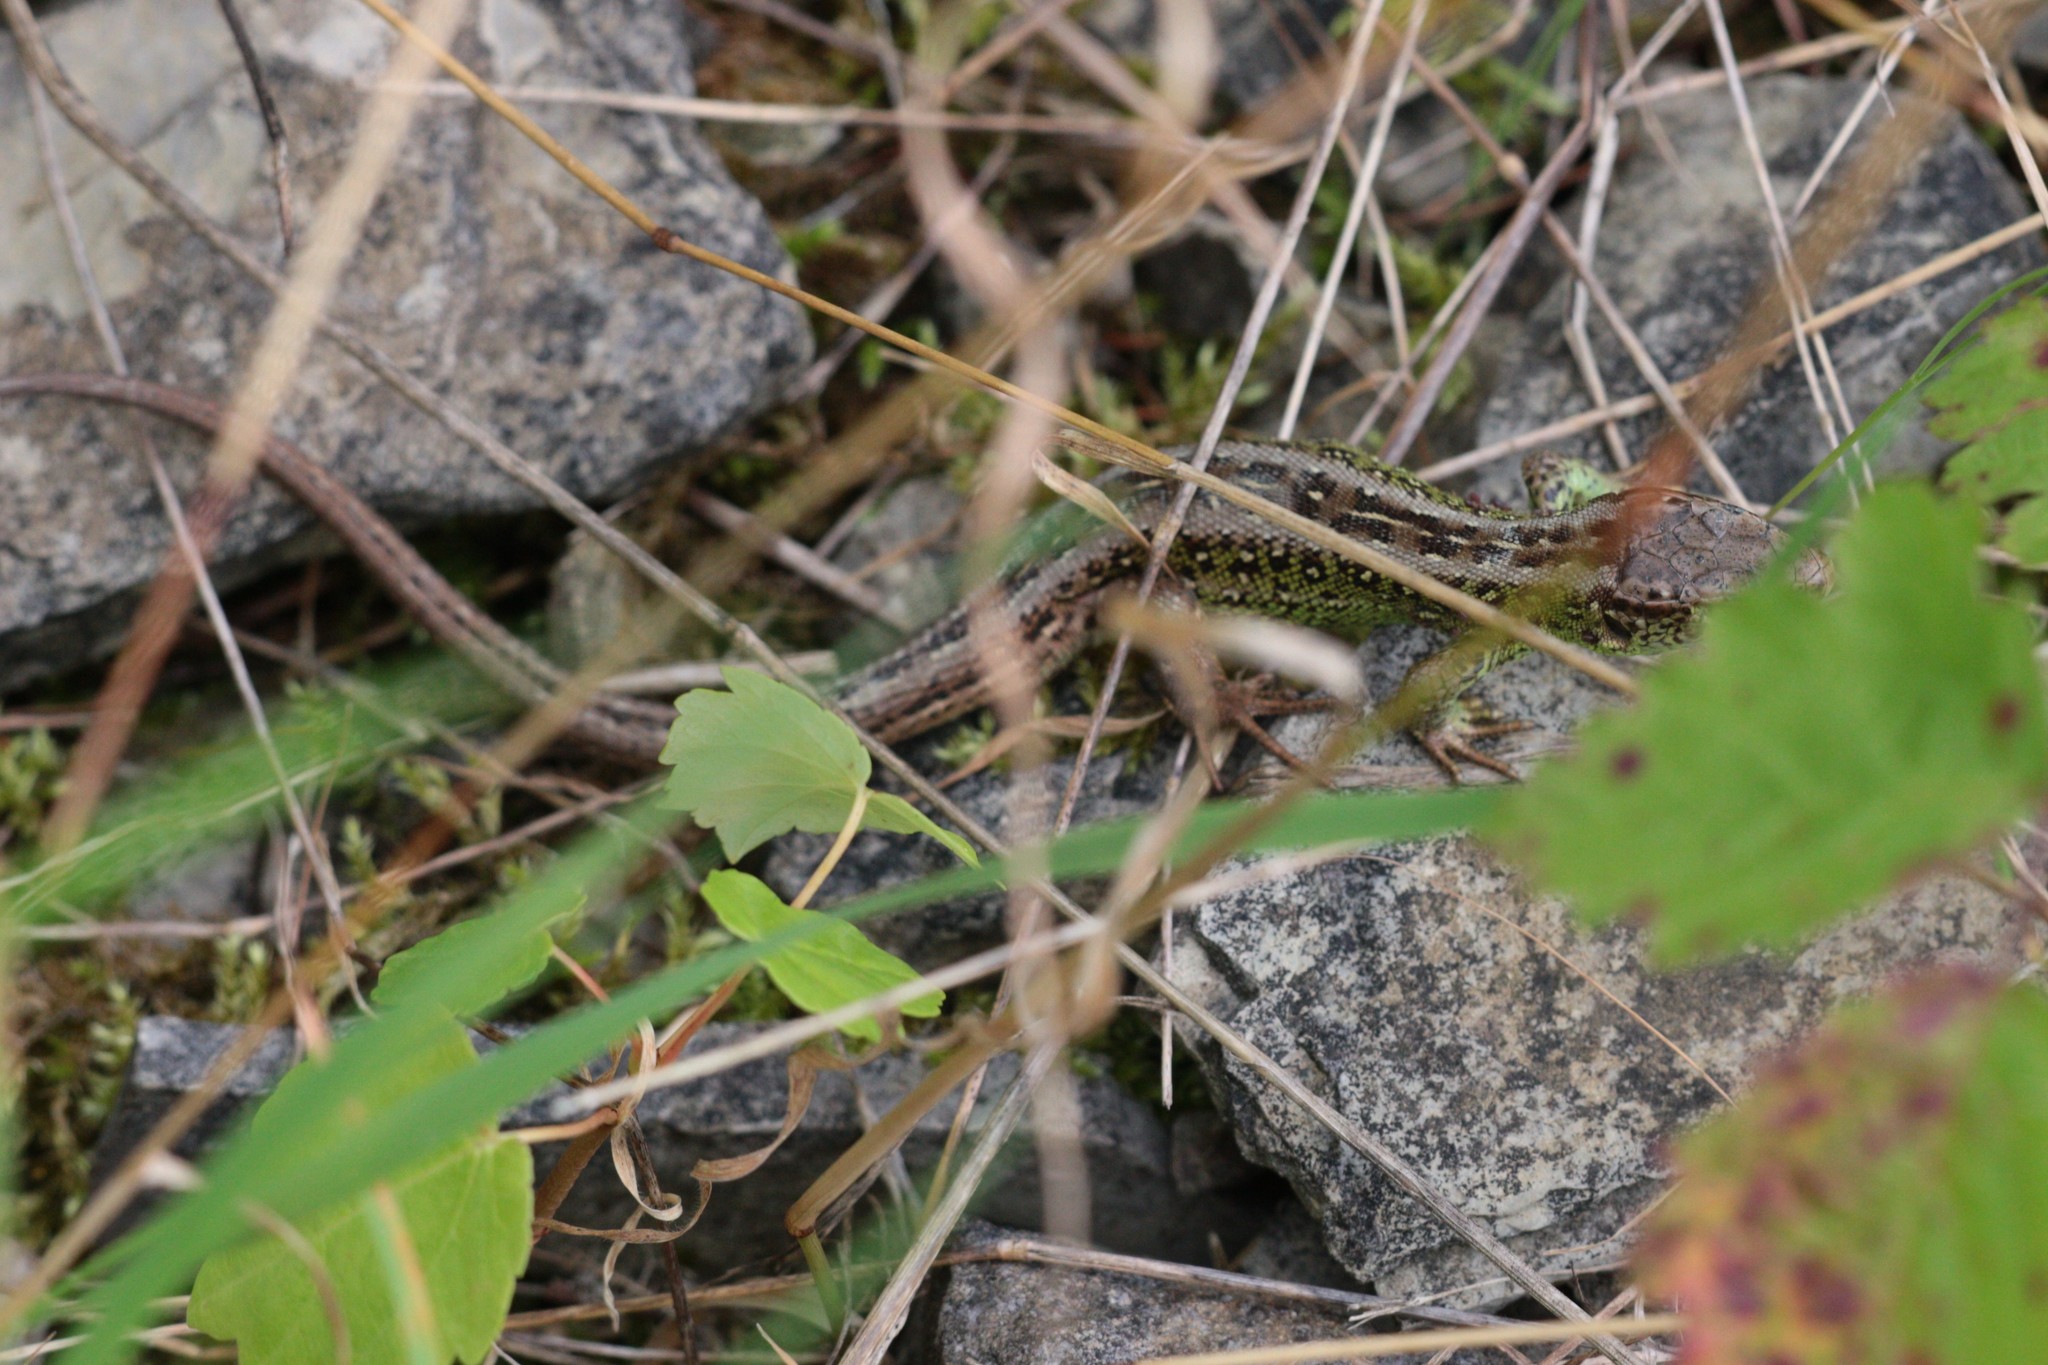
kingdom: Animalia
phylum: Chordata
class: Squamata
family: Lacertidae
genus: Lacerta
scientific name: Lacerta agilis
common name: Sand lizard
